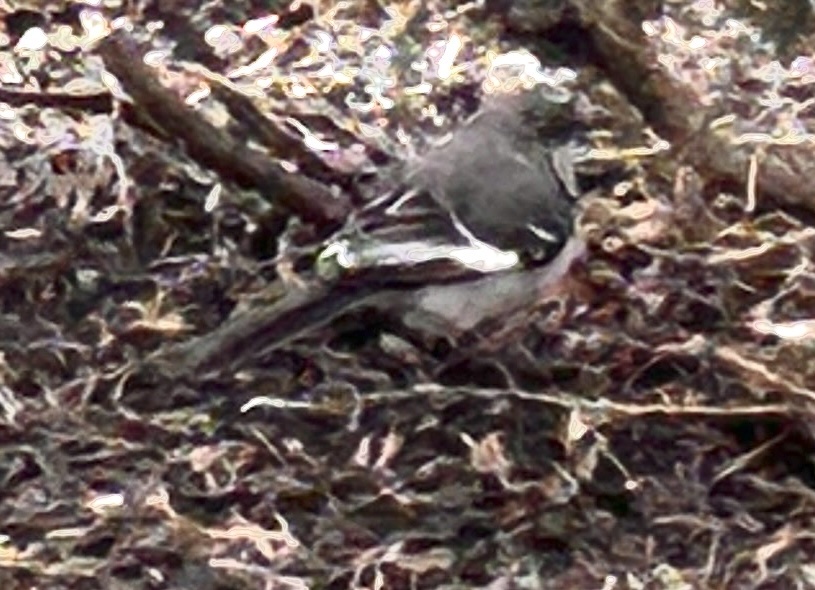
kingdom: Animalia
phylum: Chordata
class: Aves
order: Passeriformes
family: Mimidae
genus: Mimus
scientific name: Mimus polyglottos
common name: Northern mockingbird
